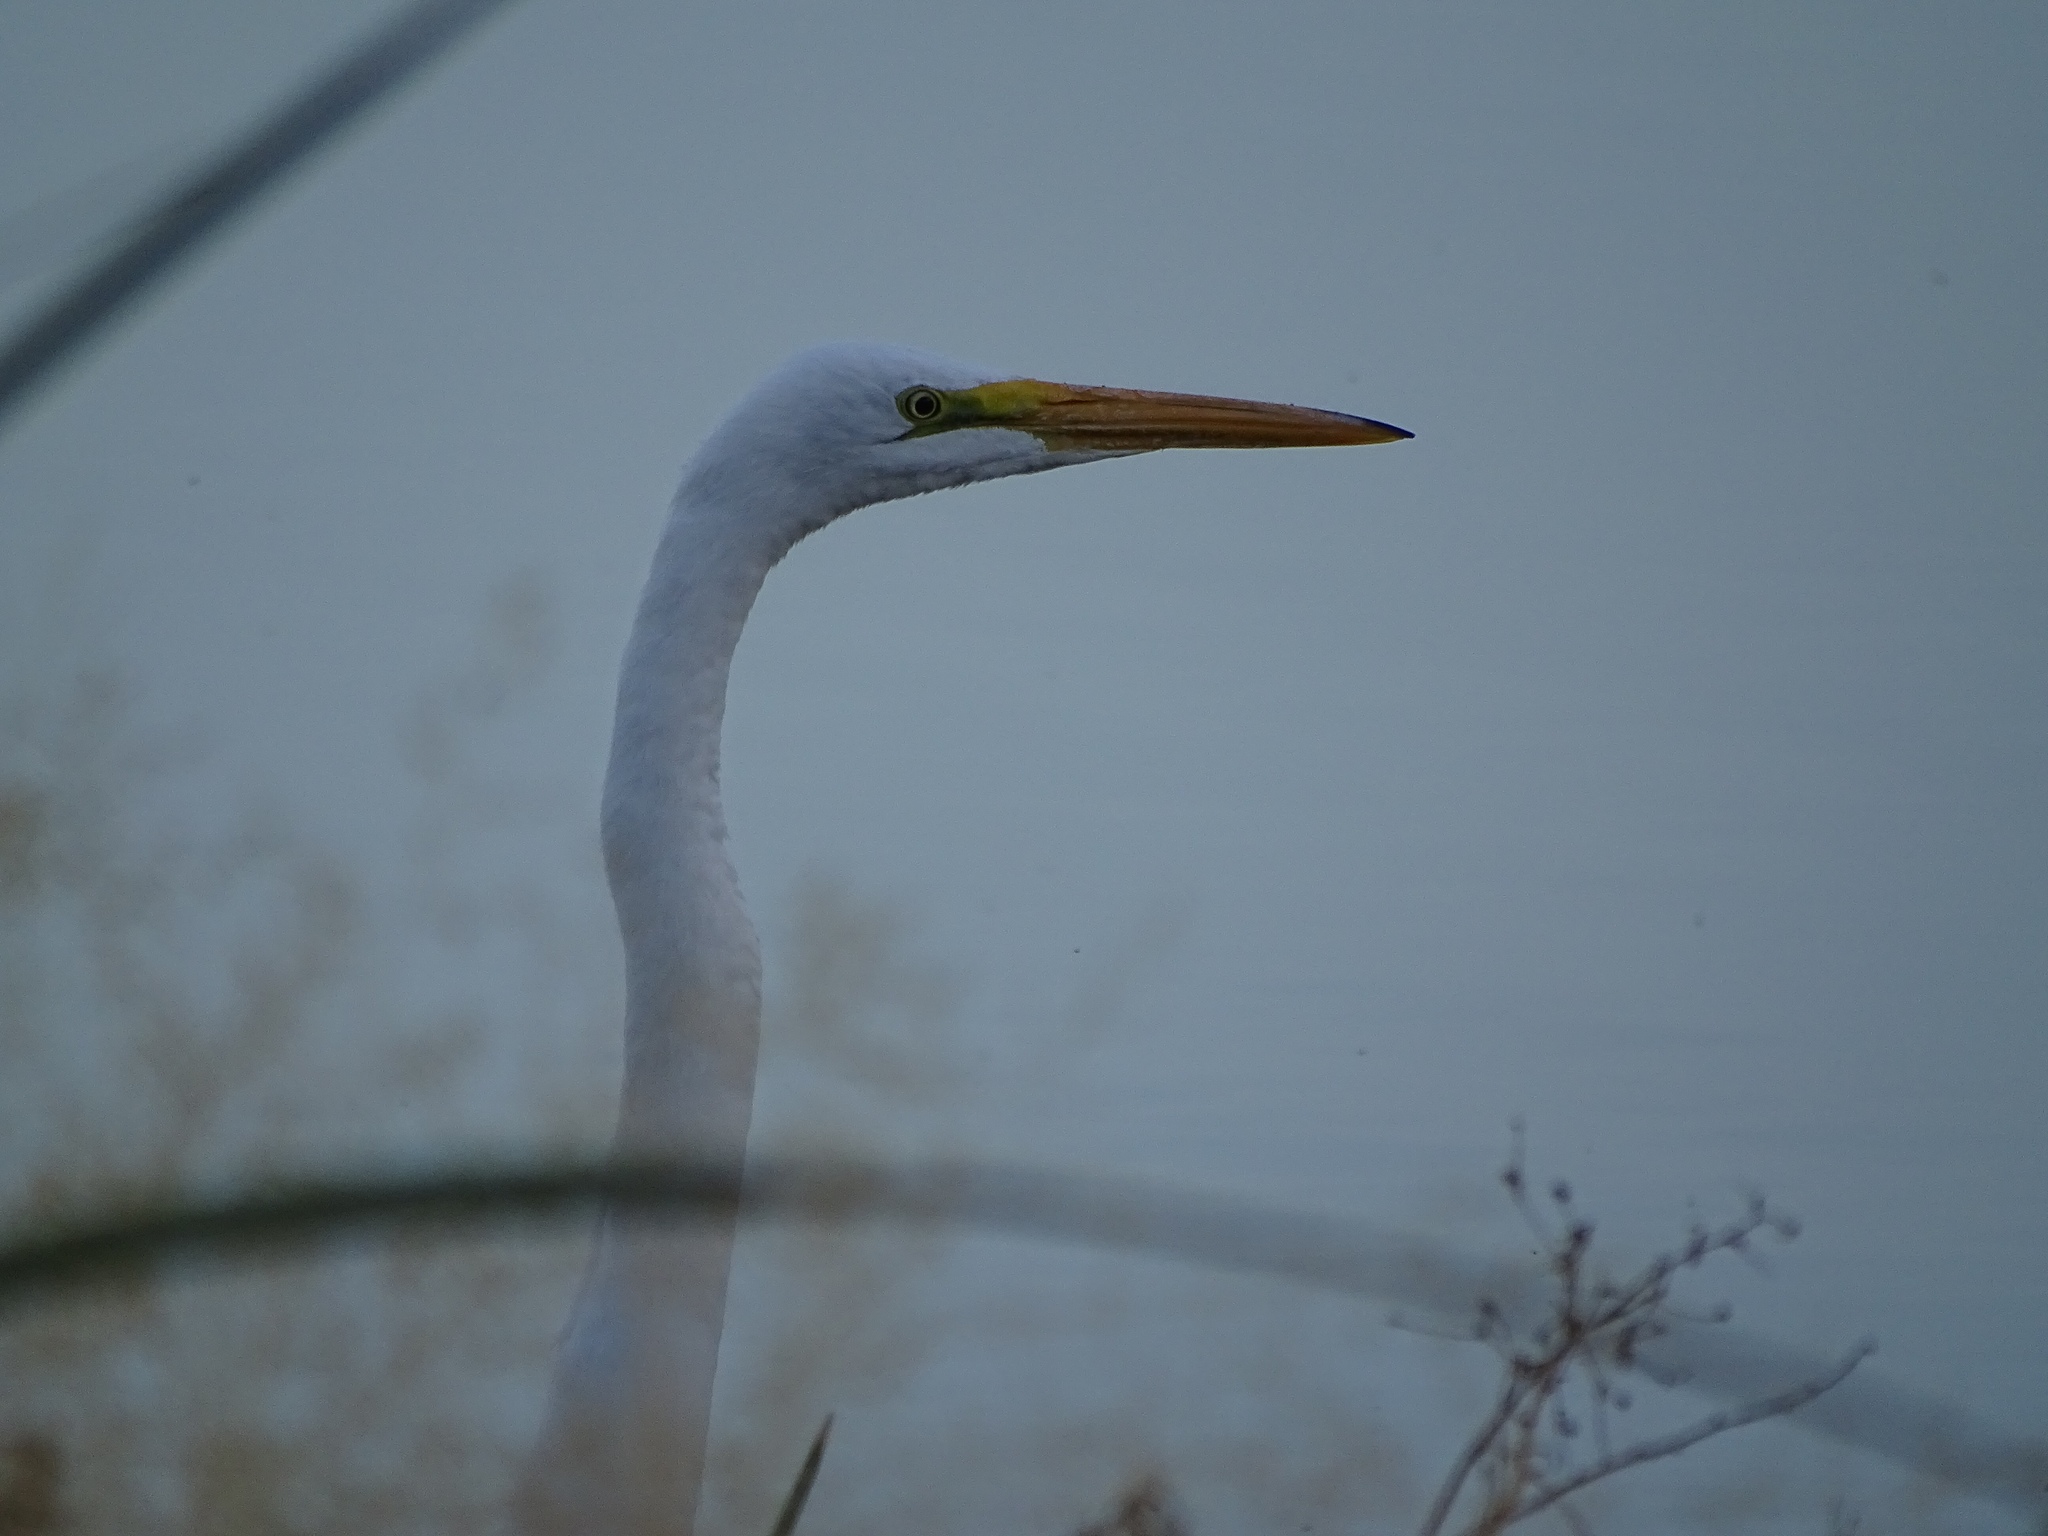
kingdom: Animalia
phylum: Chordata
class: Aves
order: Pelecaniformes
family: Ardeidae
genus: Ardea
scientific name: Ardea alba
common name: Great egret
